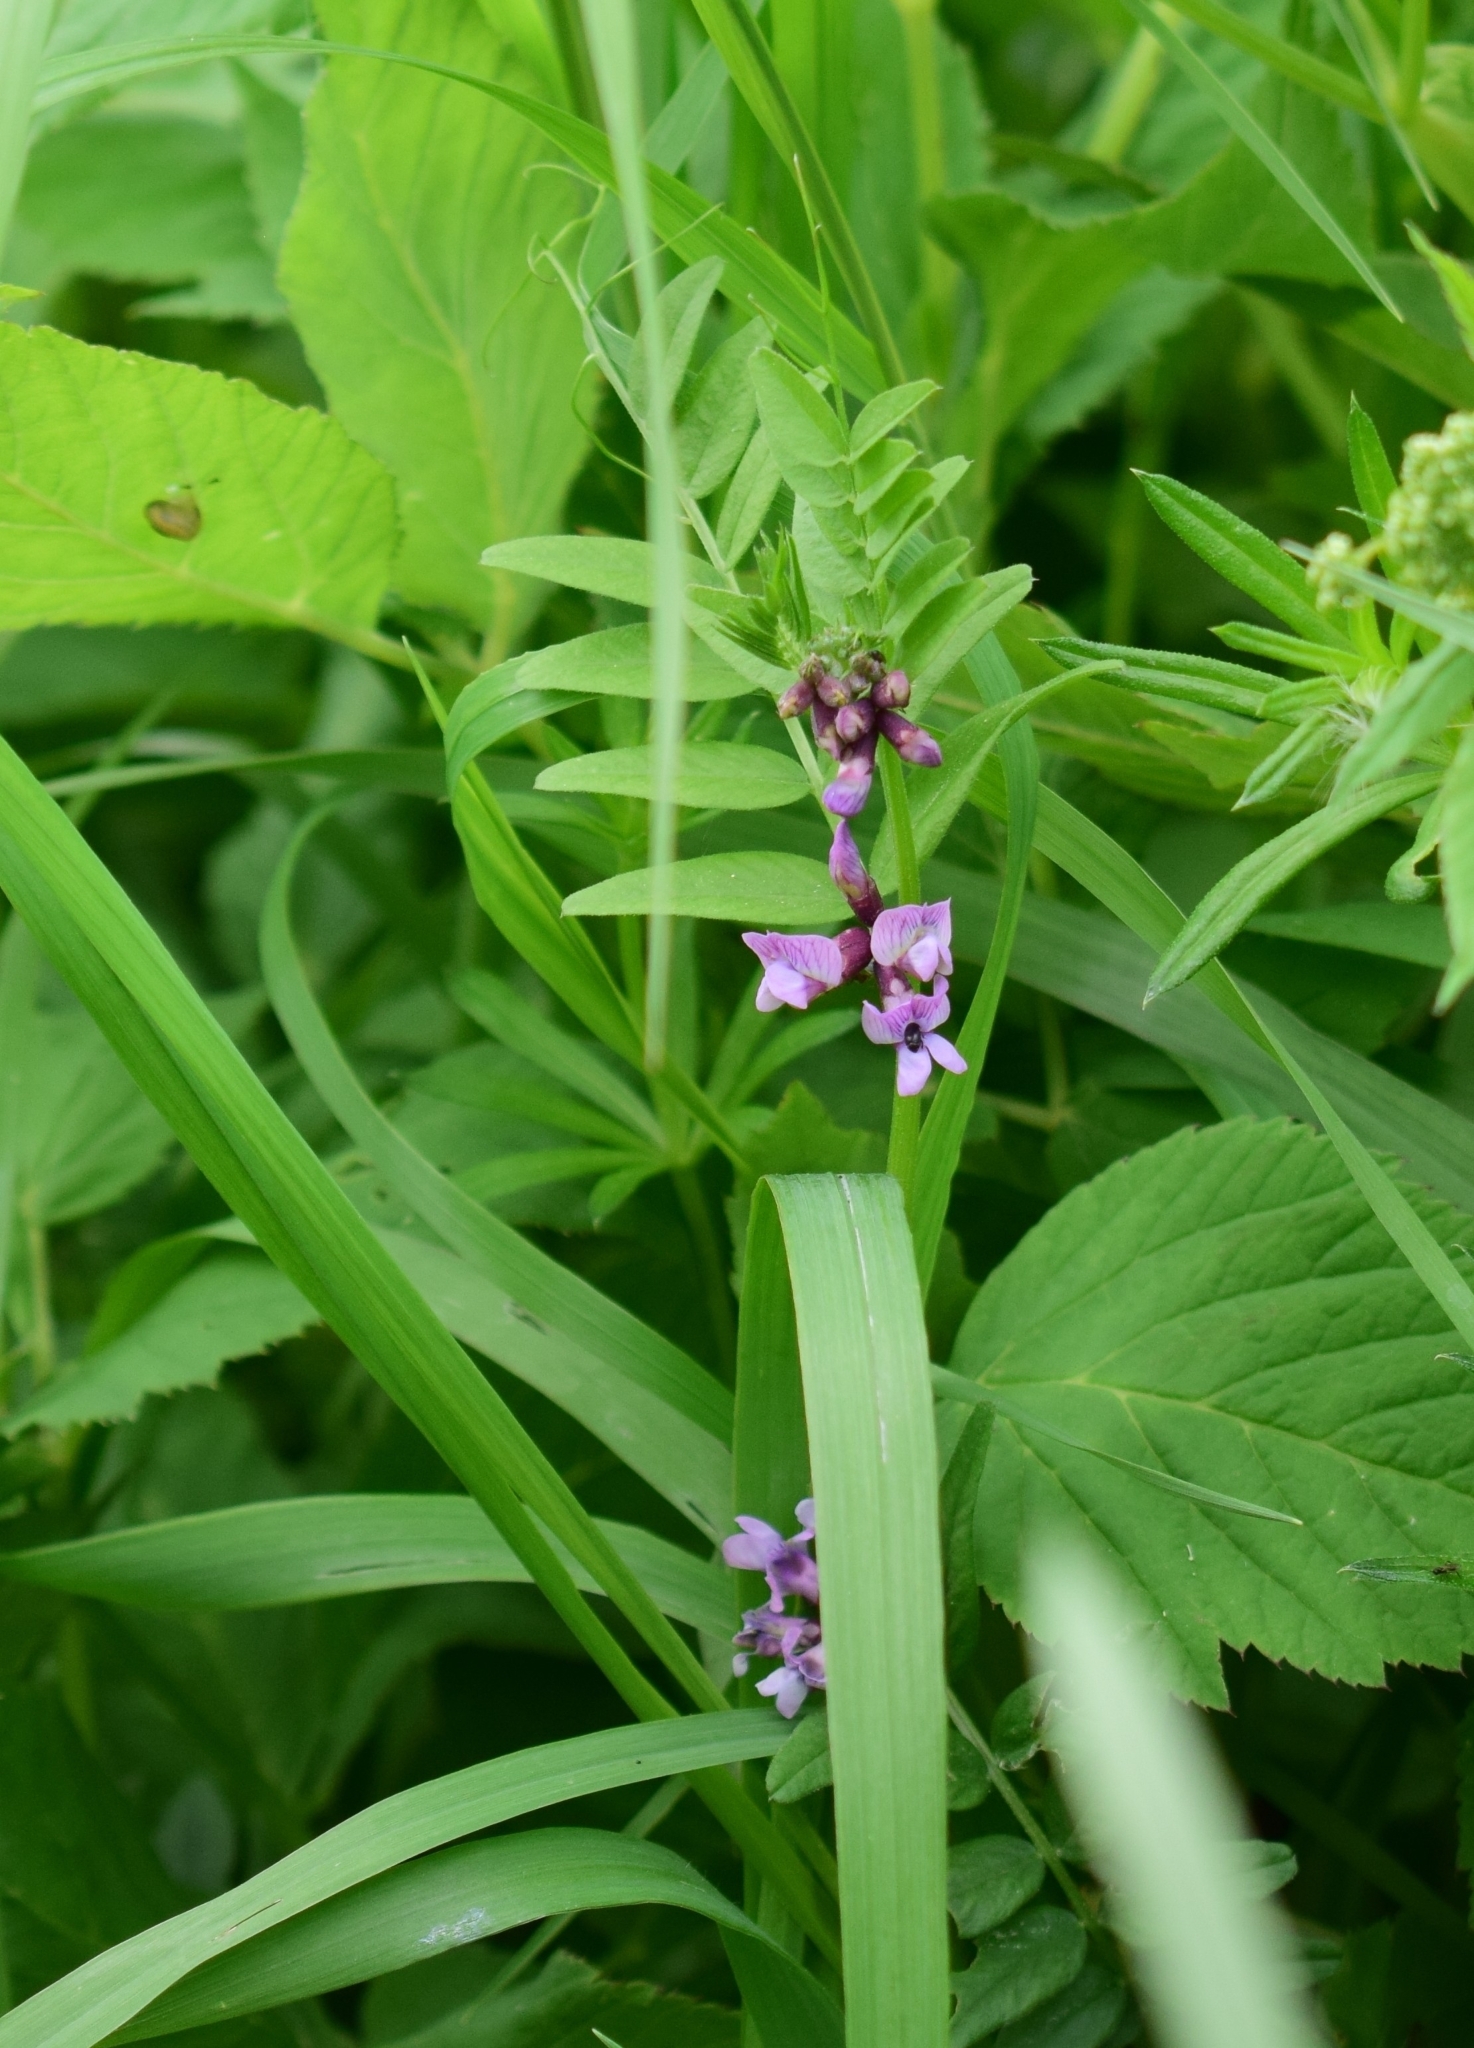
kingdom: Plantae
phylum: Tracheophyta
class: Magnoliopsida
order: Fabales
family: Fabaceae
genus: Vicia
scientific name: Vicia sepium
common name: Bush vetch
